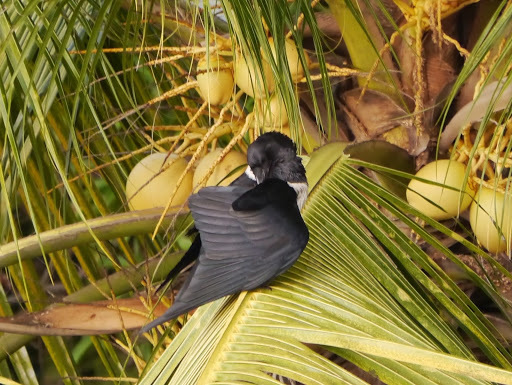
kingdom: Animalia
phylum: Chordata
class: Aves
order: Passeriformes
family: Corvidae
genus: Corvus
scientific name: Corvus albus
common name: Pied crow
